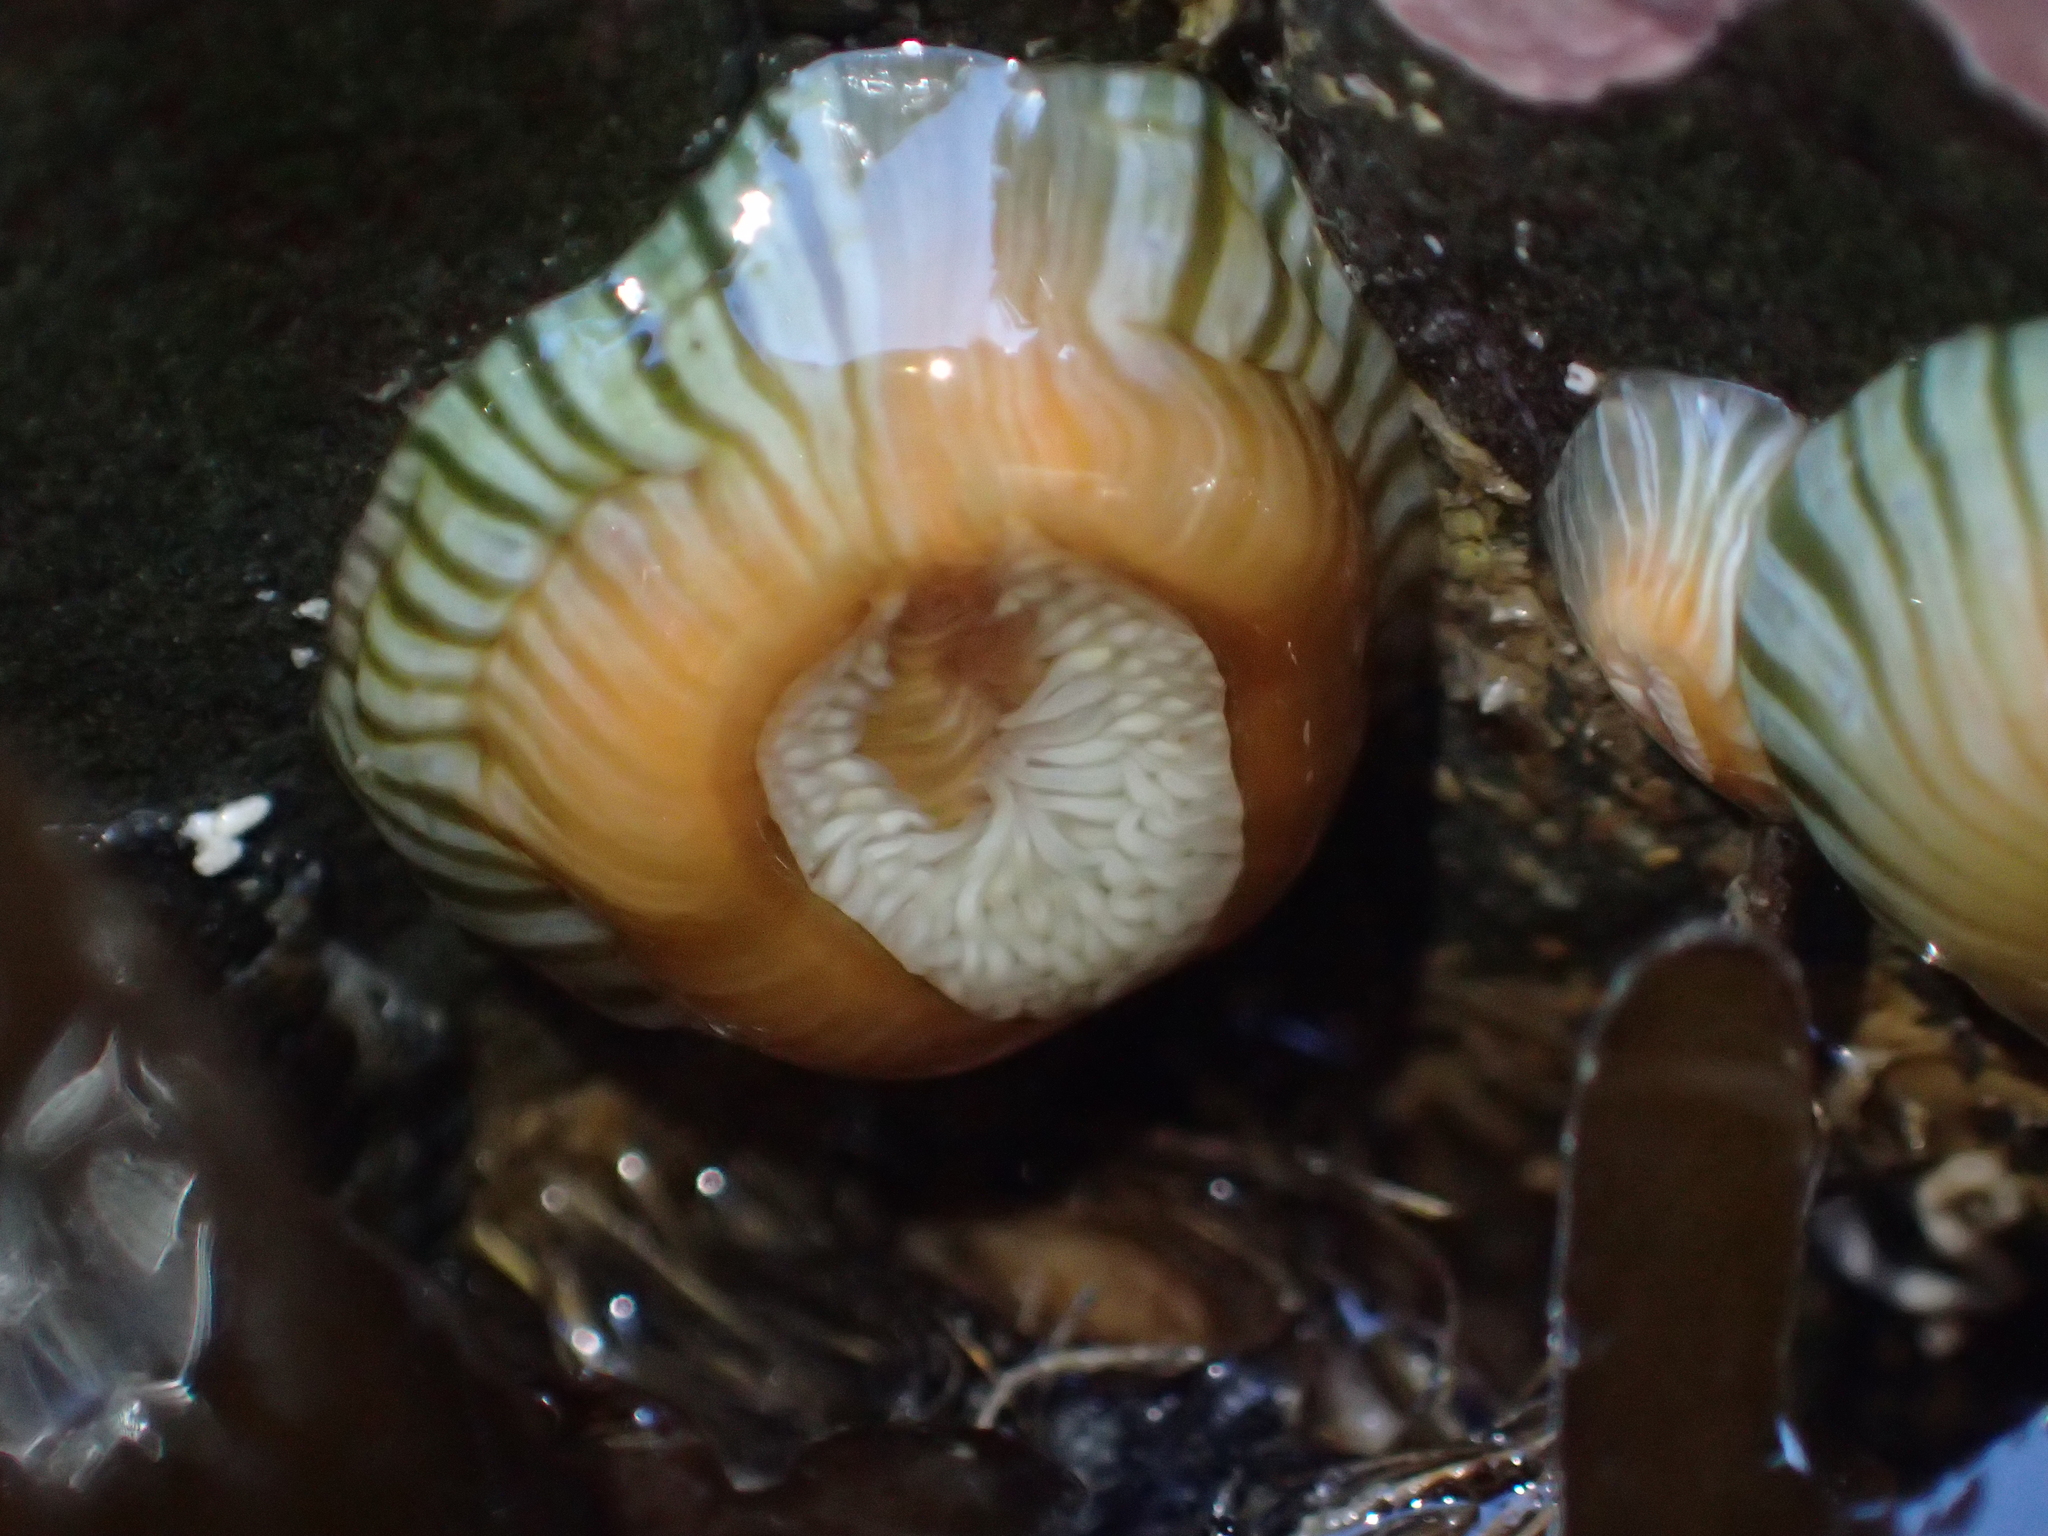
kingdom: Animalia
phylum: Cnidaria
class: Anthozoa
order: Actiniaria
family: Sagartiidae
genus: Anthothoe
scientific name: Anthothoe albocincta
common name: Orange striped anemone
